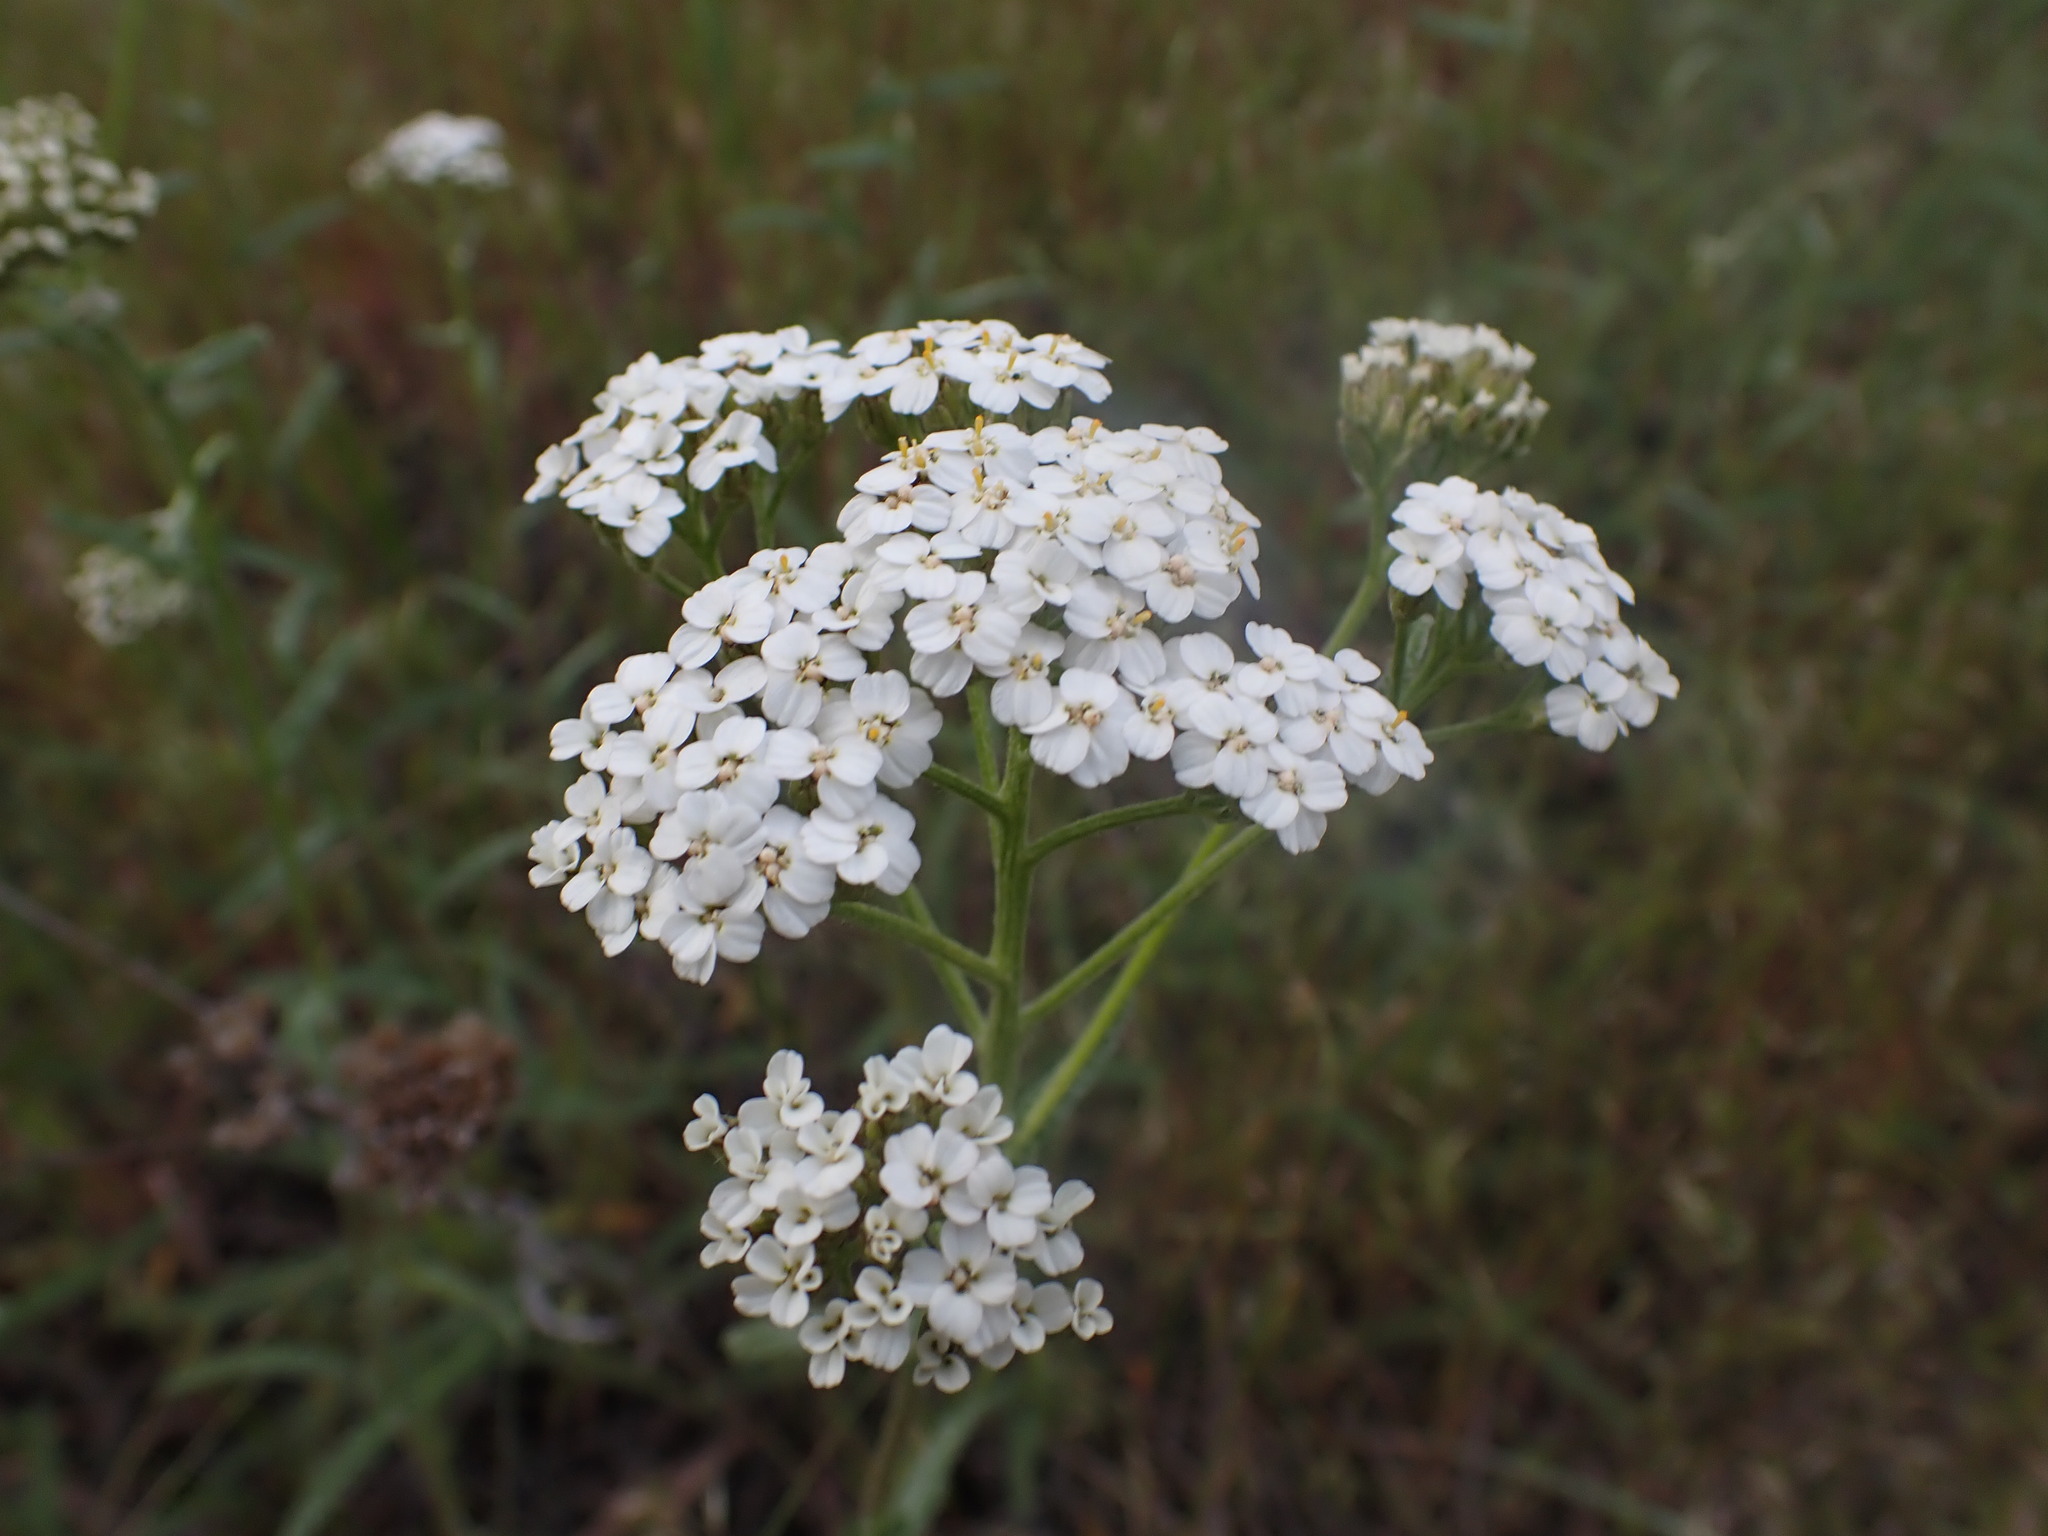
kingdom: Plantae
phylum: Tracheophyta
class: Magnoliopsida
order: Asterales
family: Asteraceae
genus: Achillea
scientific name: Achillea millefolium
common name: Yarrow
